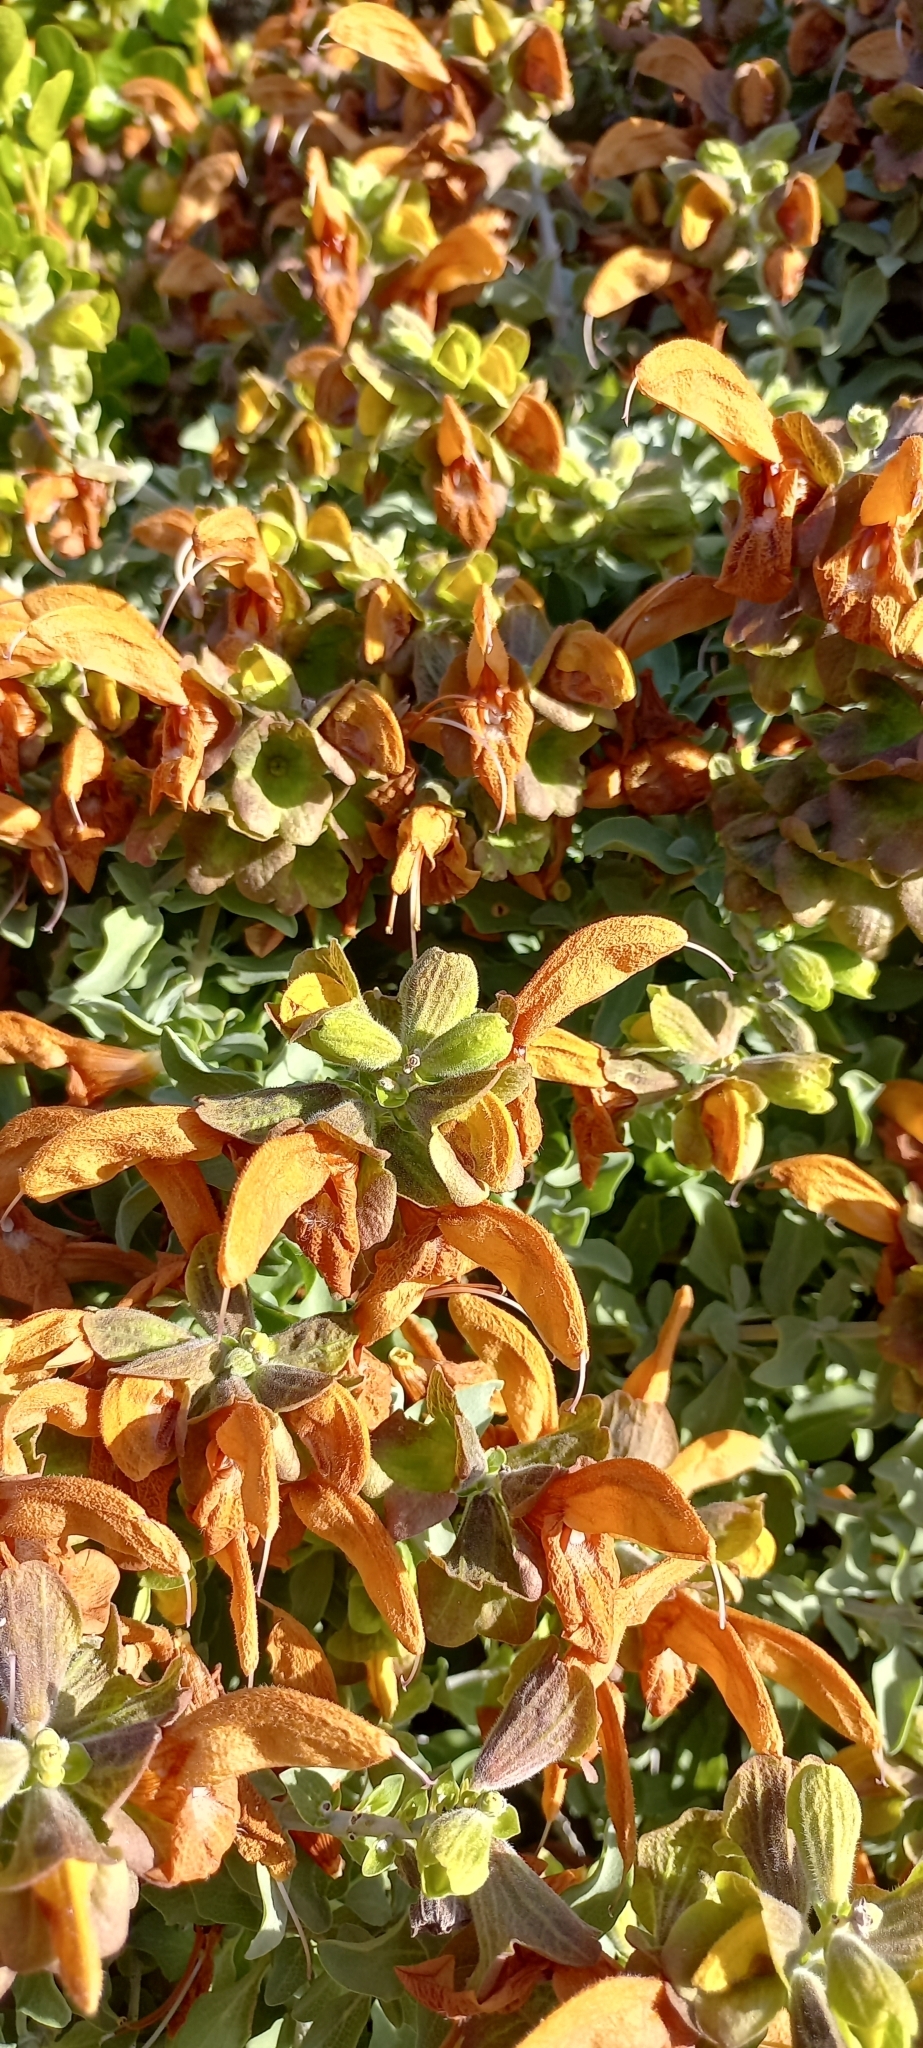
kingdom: Plantae
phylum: Tracheophyta
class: Magnoliopsida
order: Lamiales
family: Lamiaceae
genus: Salvia
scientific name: Salvia aurea
